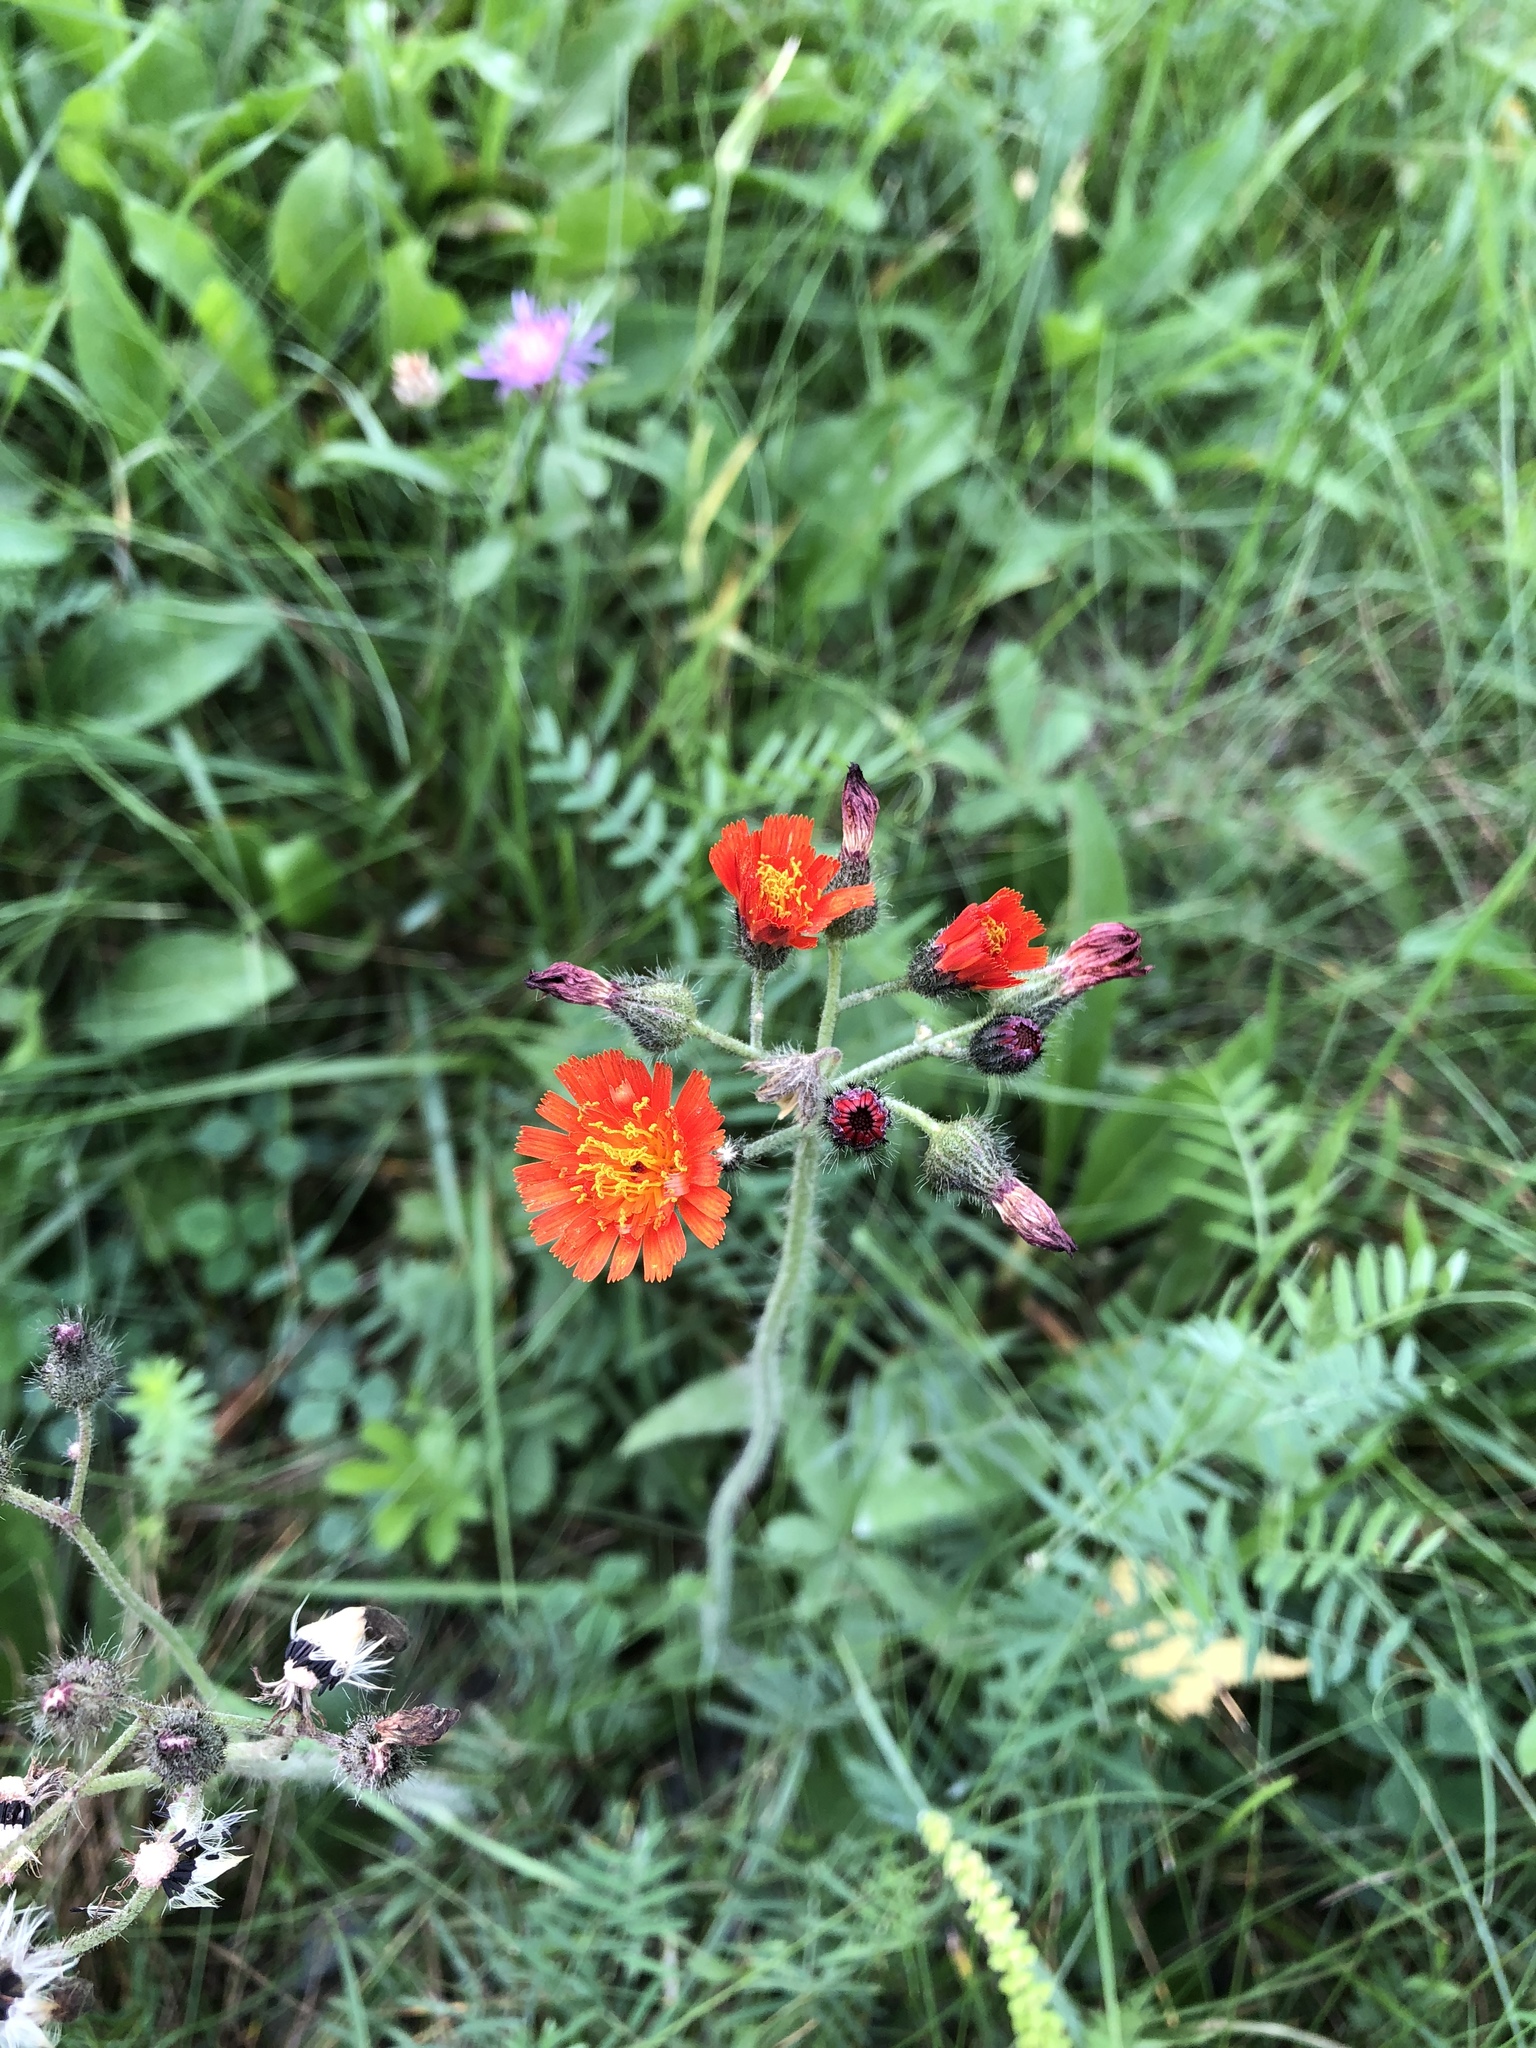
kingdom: Plantae
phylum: Tracheophyta
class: Magnoliopsida
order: Asterales
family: Asteraceae
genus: Pilosella
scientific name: Pilosella aurantiaca
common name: Fox-and-cubs
